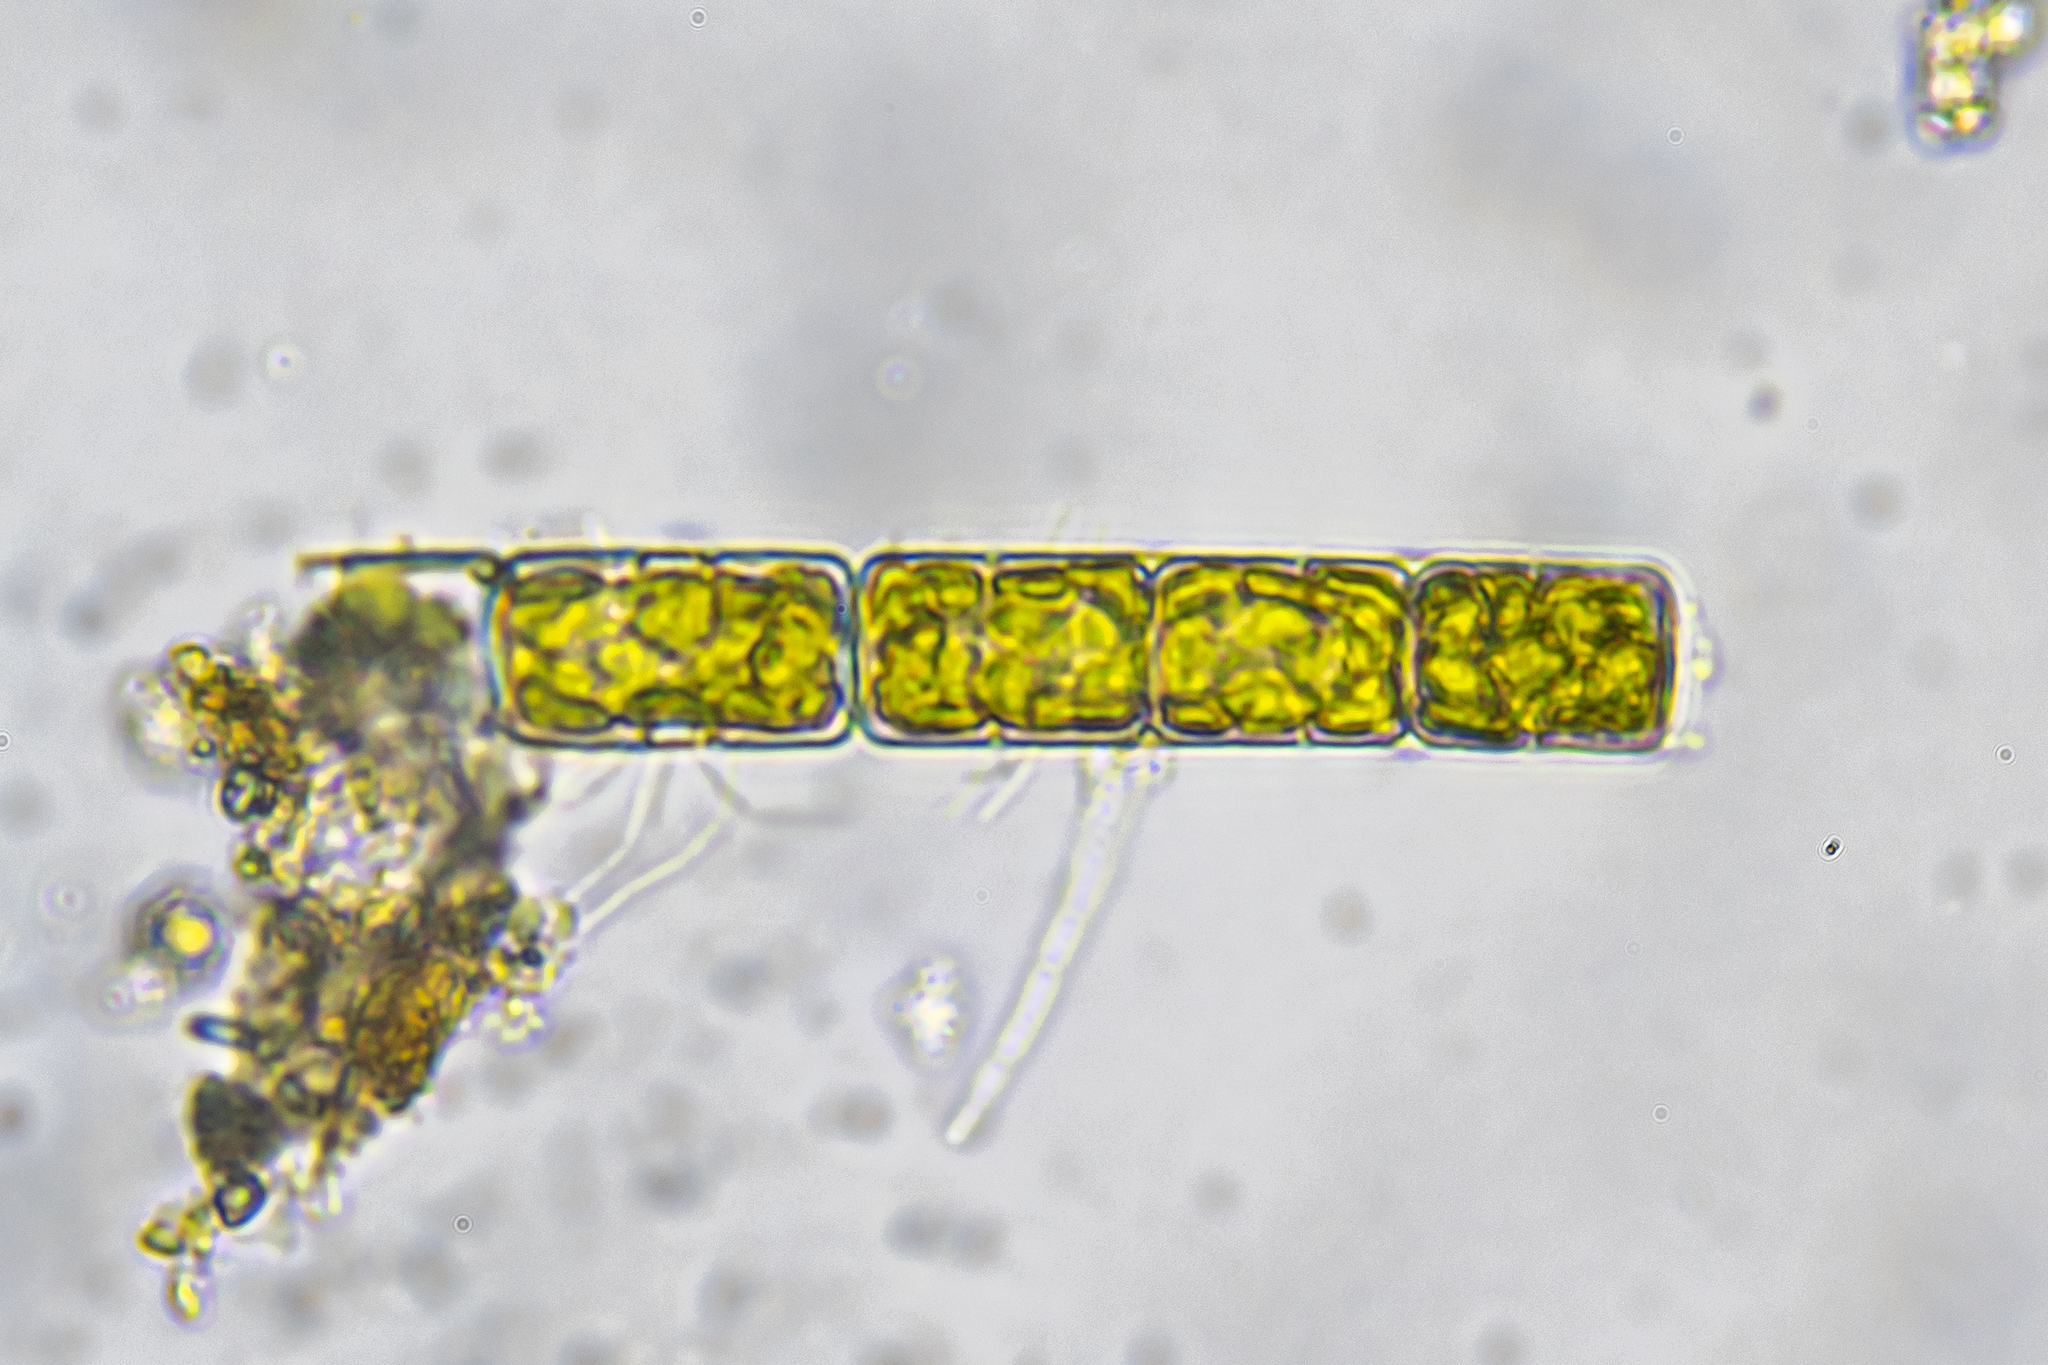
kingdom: Chromista
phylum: Ochrophyta
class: Bacillariophyceae
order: Melosirales
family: Melosiraceae
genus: Melosira
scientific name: Melosira varians
